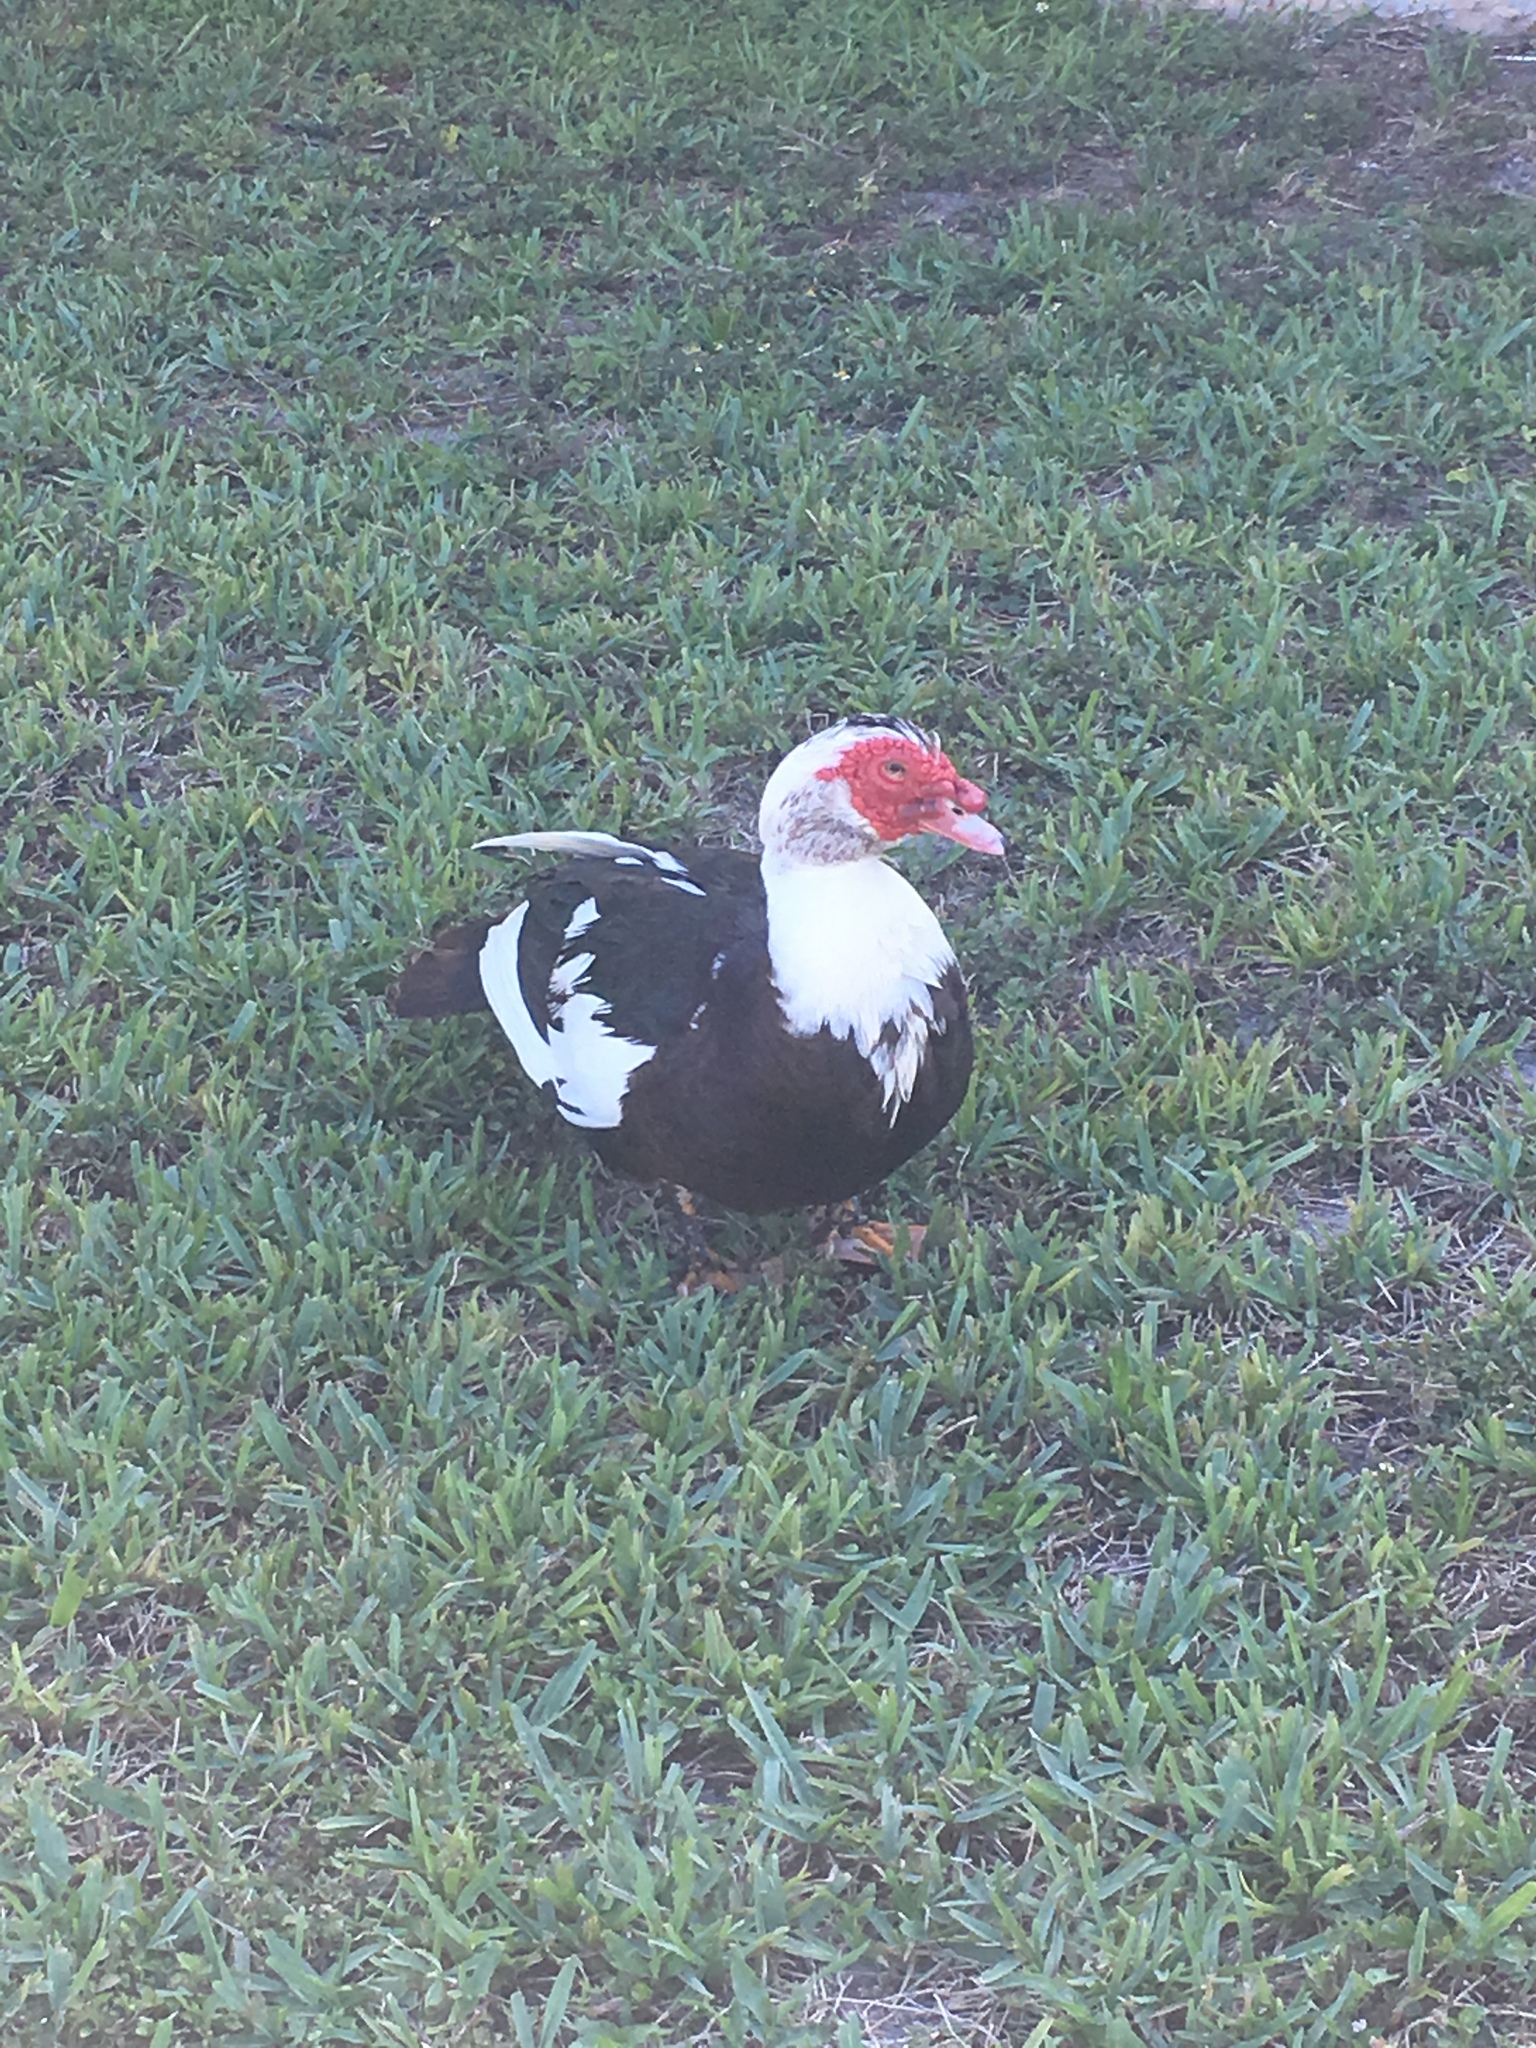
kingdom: Animalia
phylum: Chordata
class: Aves
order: Anseriformes
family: Anatidae
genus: Cairina
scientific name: Cairina moschata
